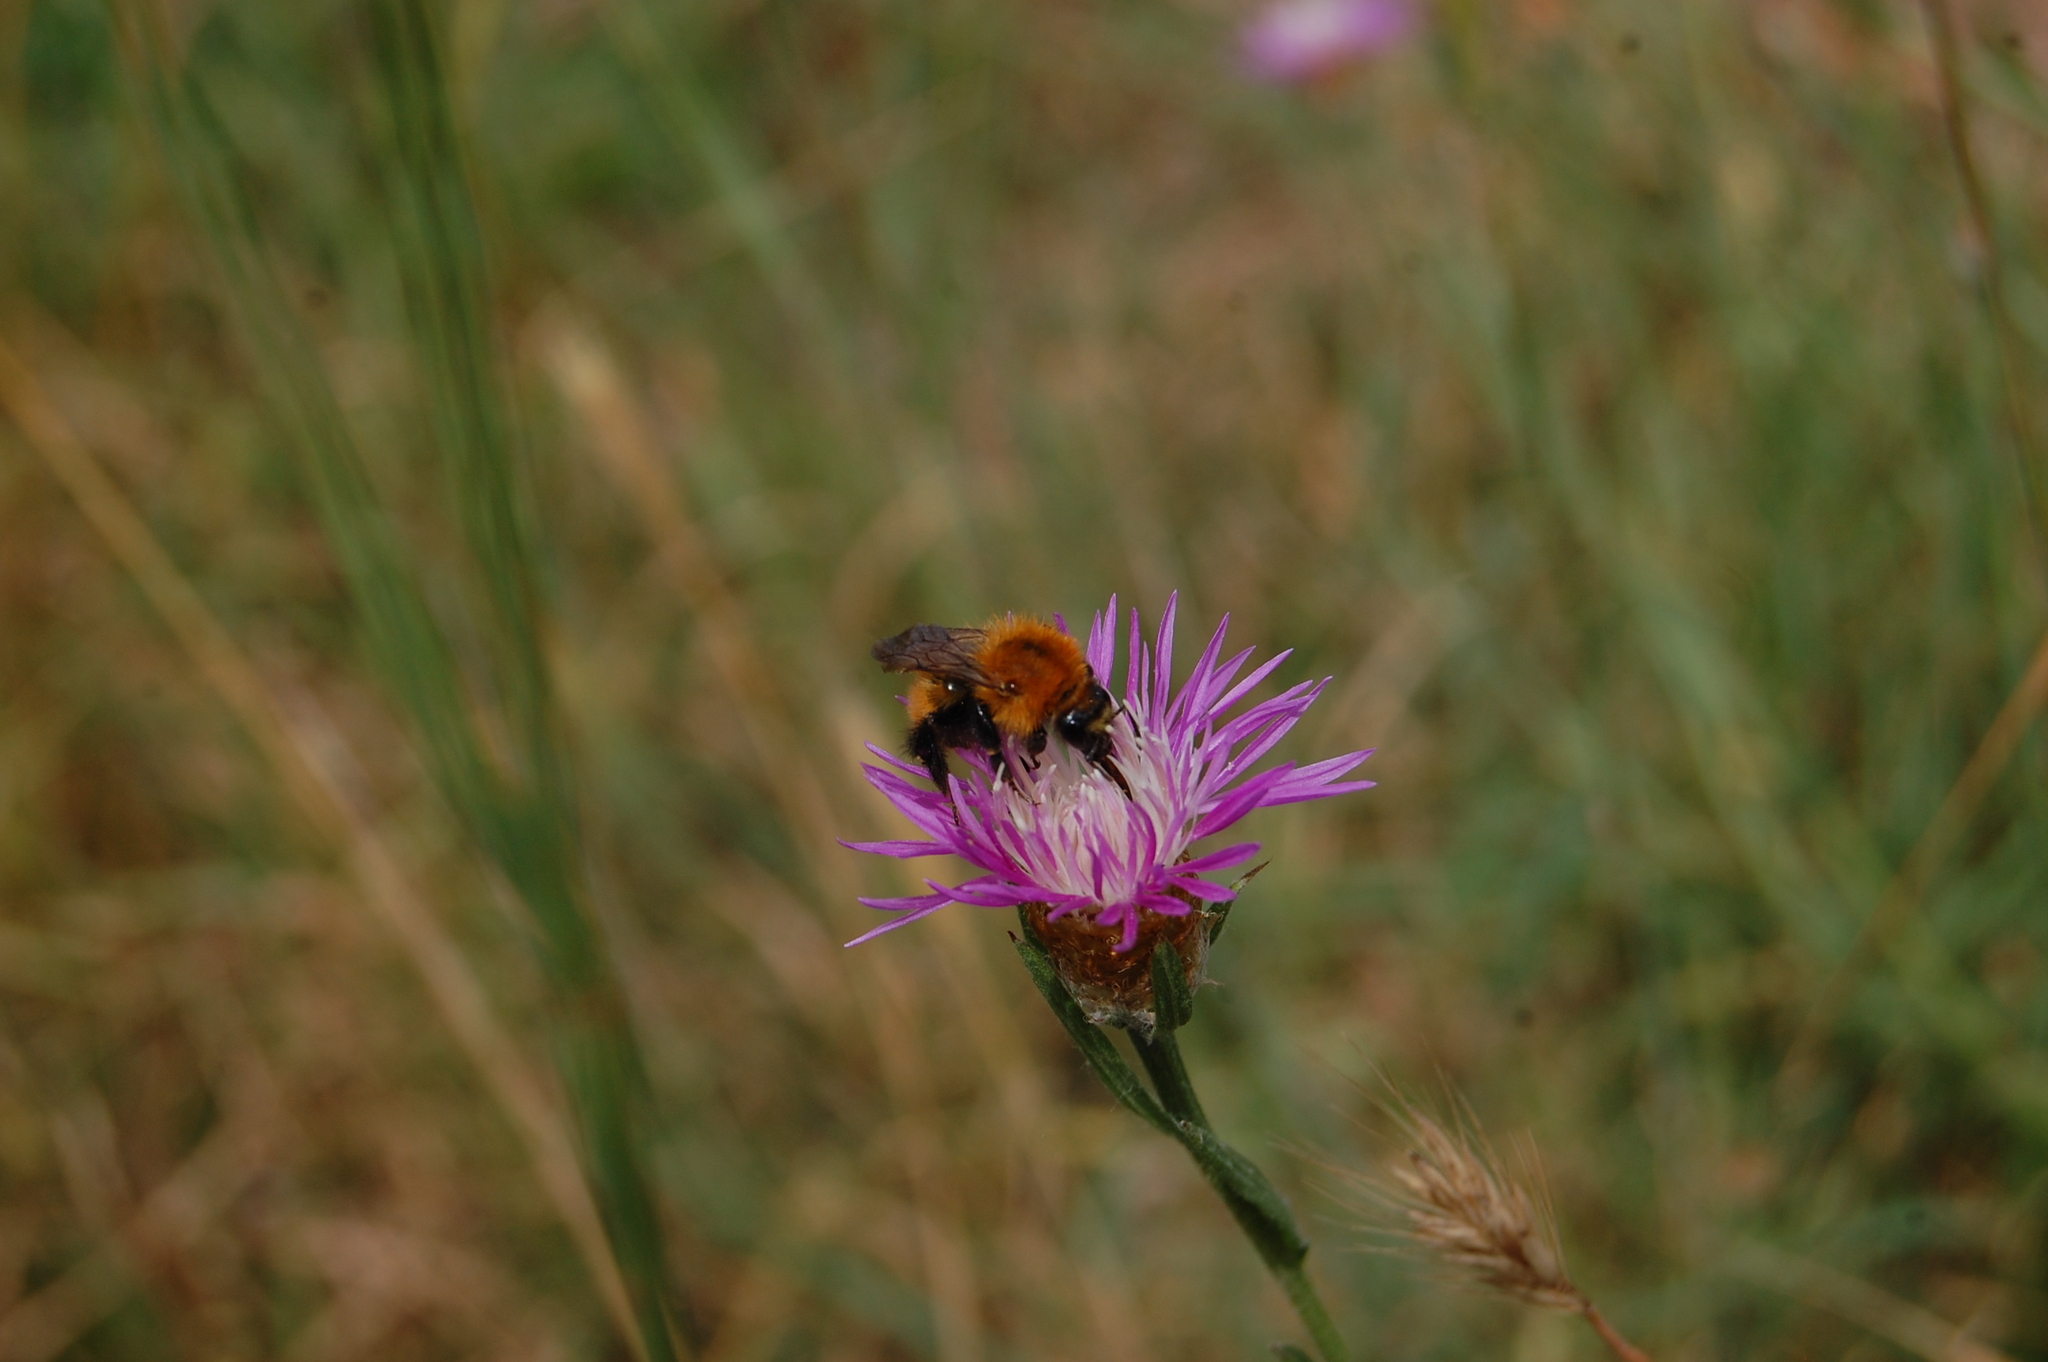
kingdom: Plantae
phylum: Tracheophyta
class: Magnoliopsida
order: Asterales
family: Asteraceae
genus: Centaurea
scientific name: Centaurea jacea
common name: Brown knapweed
